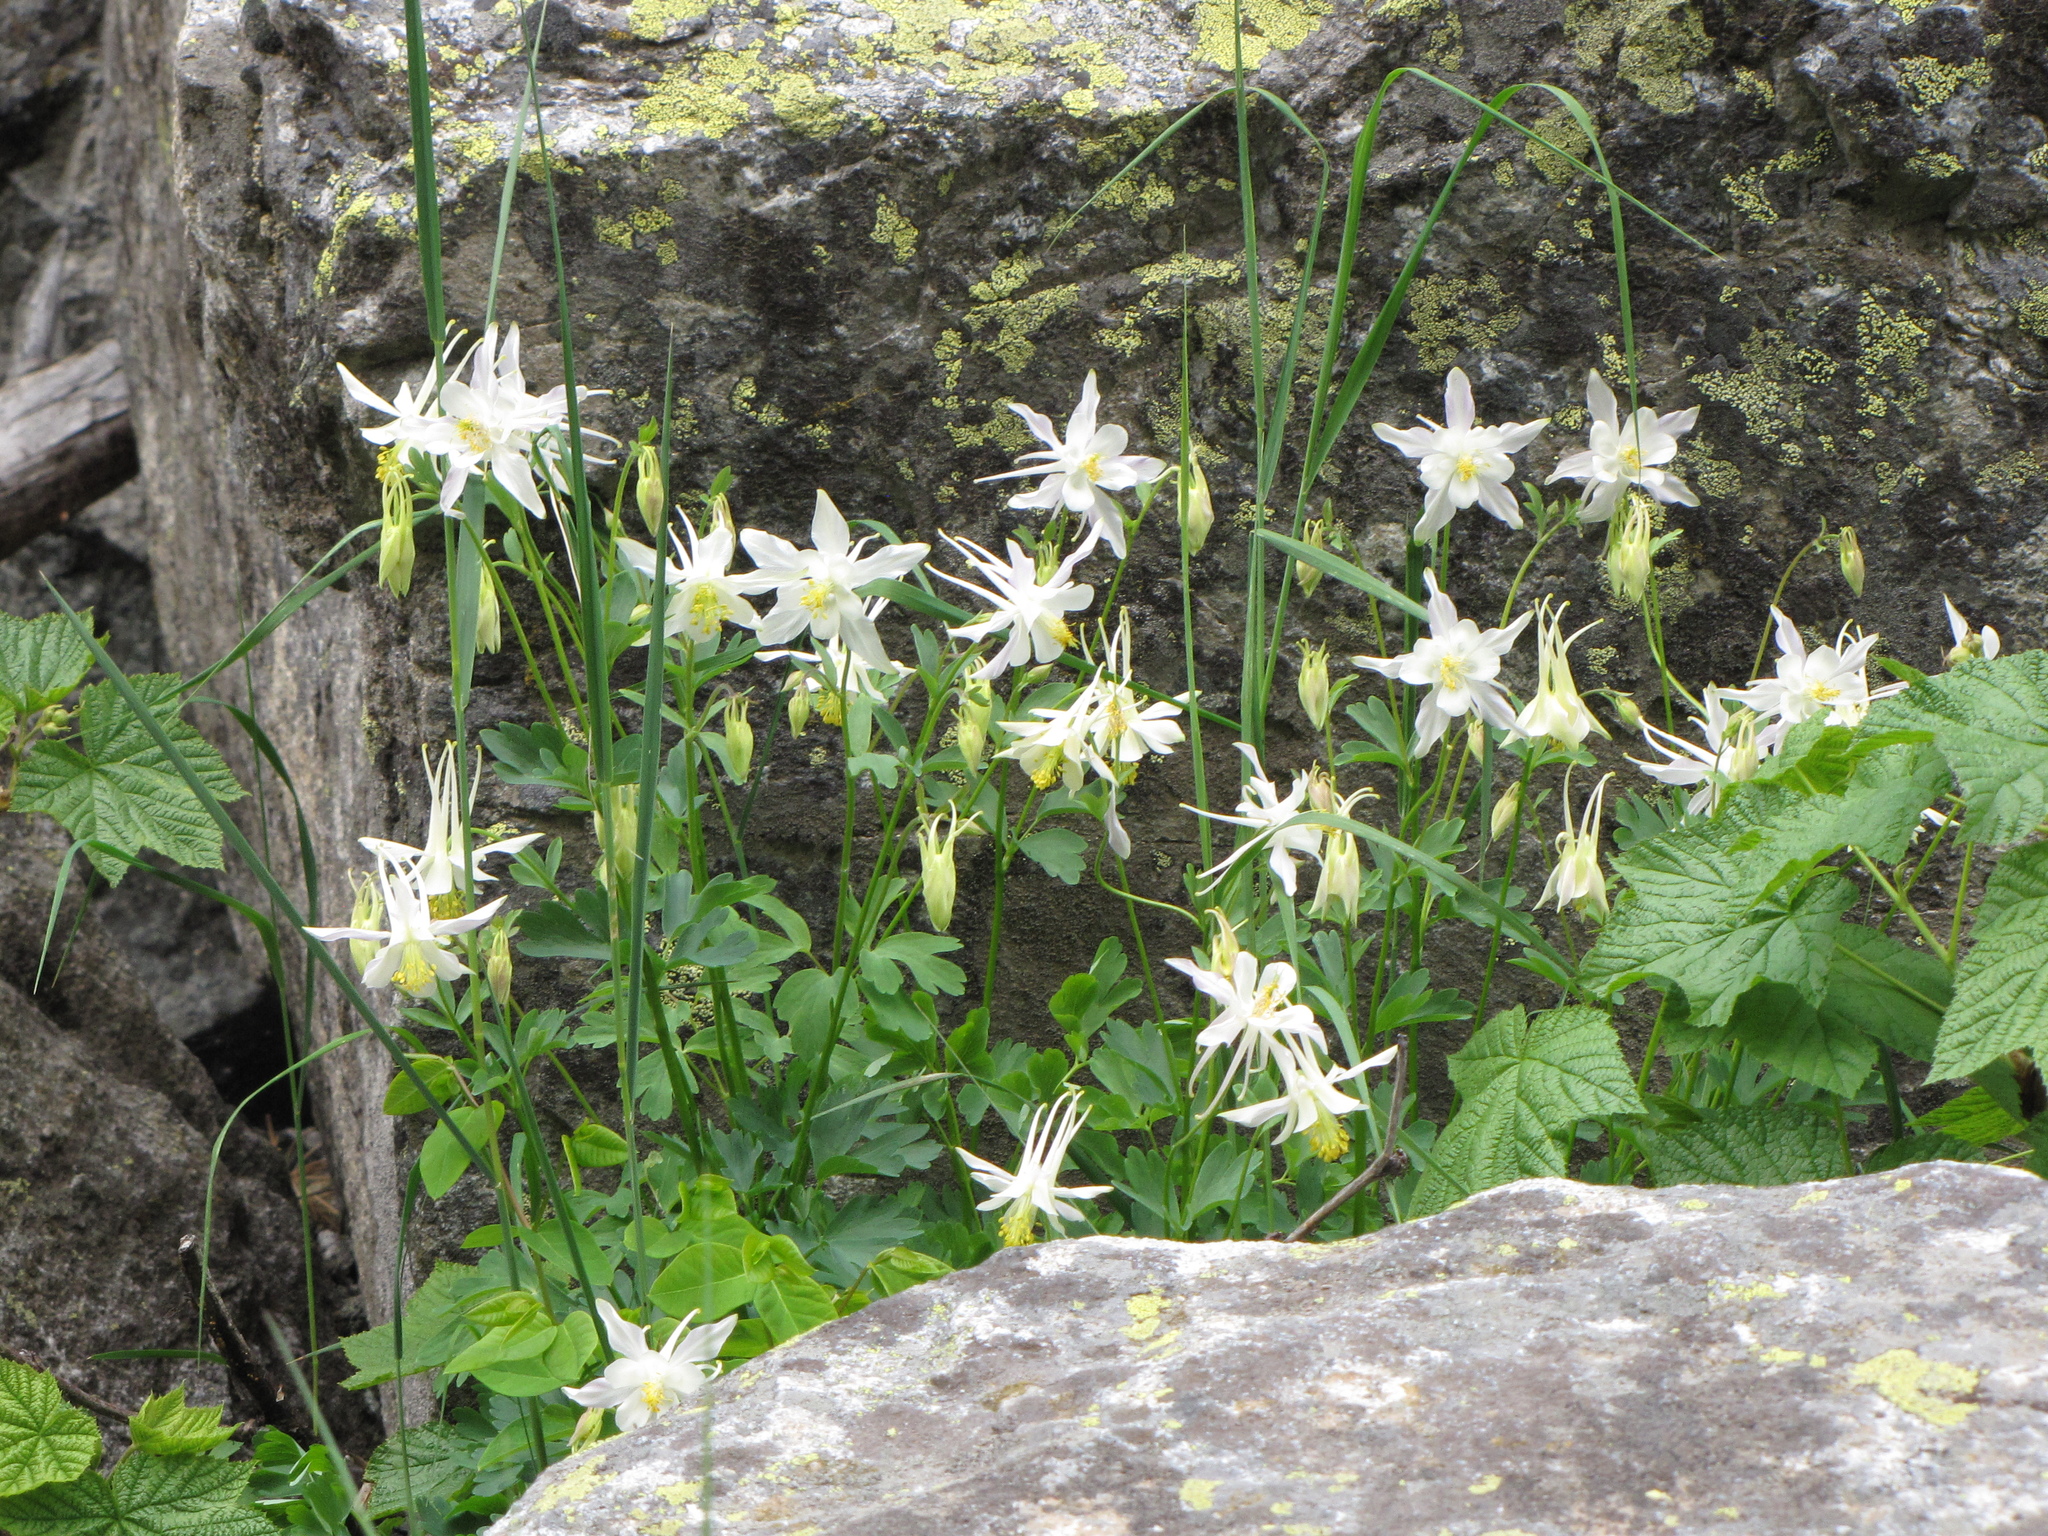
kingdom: Plantae
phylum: Tracheophyta
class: Magnoliopsida
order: Ranunculales
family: Ranunculaceae
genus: Aquilegia
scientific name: Aquilegia coerulea
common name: Rocky mountain columbine
